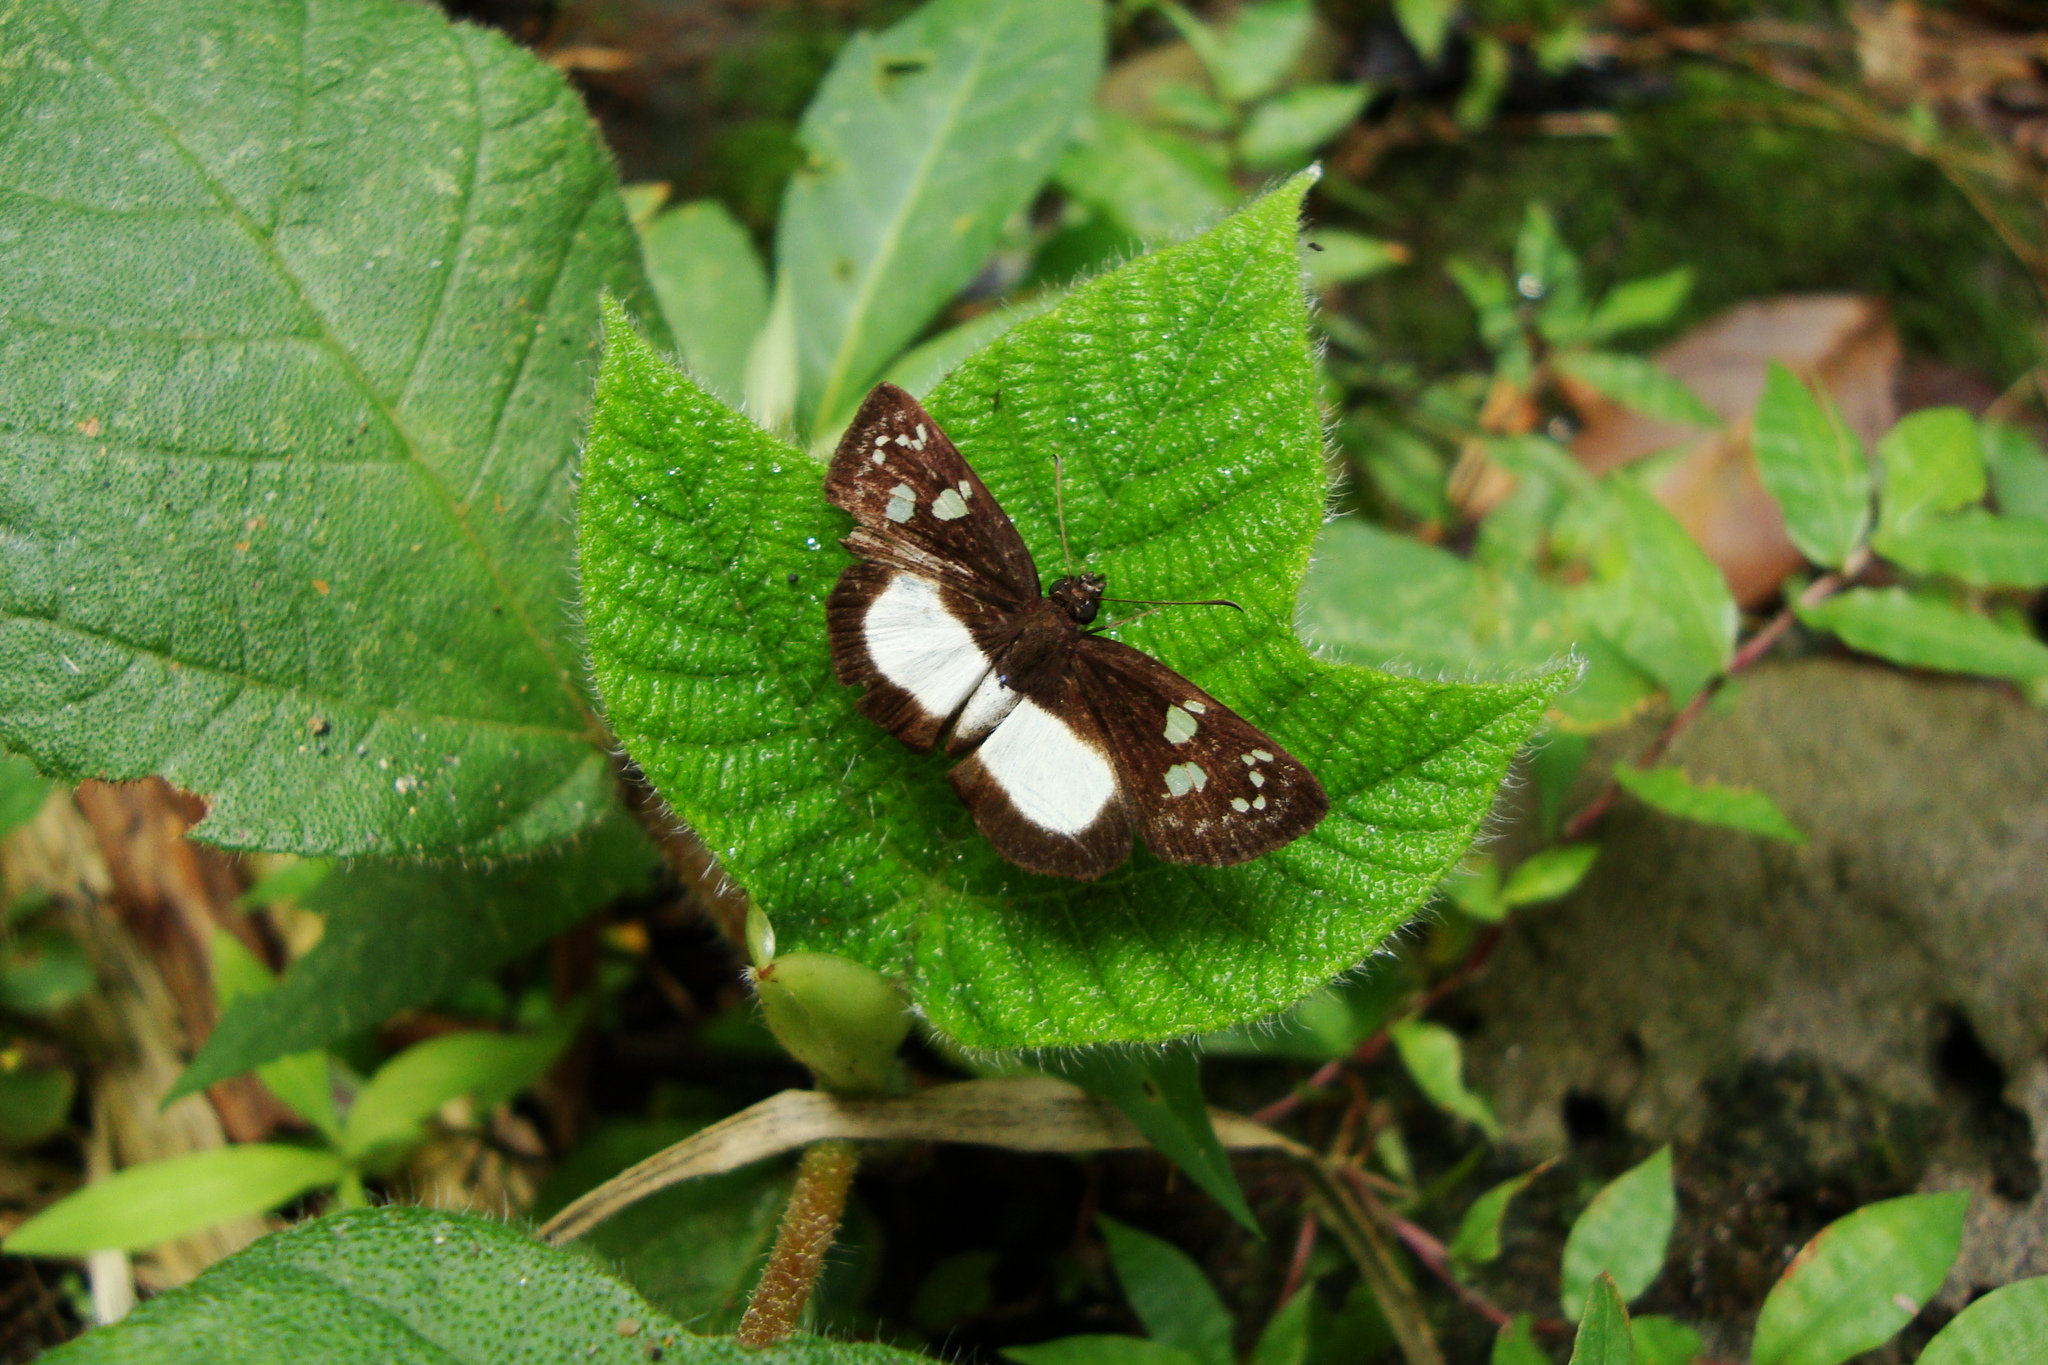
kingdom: Animalia
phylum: Arthropoda
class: Insecta
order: Lepidoptera
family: Nymphalidae
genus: Eresia
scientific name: Eresia clio
